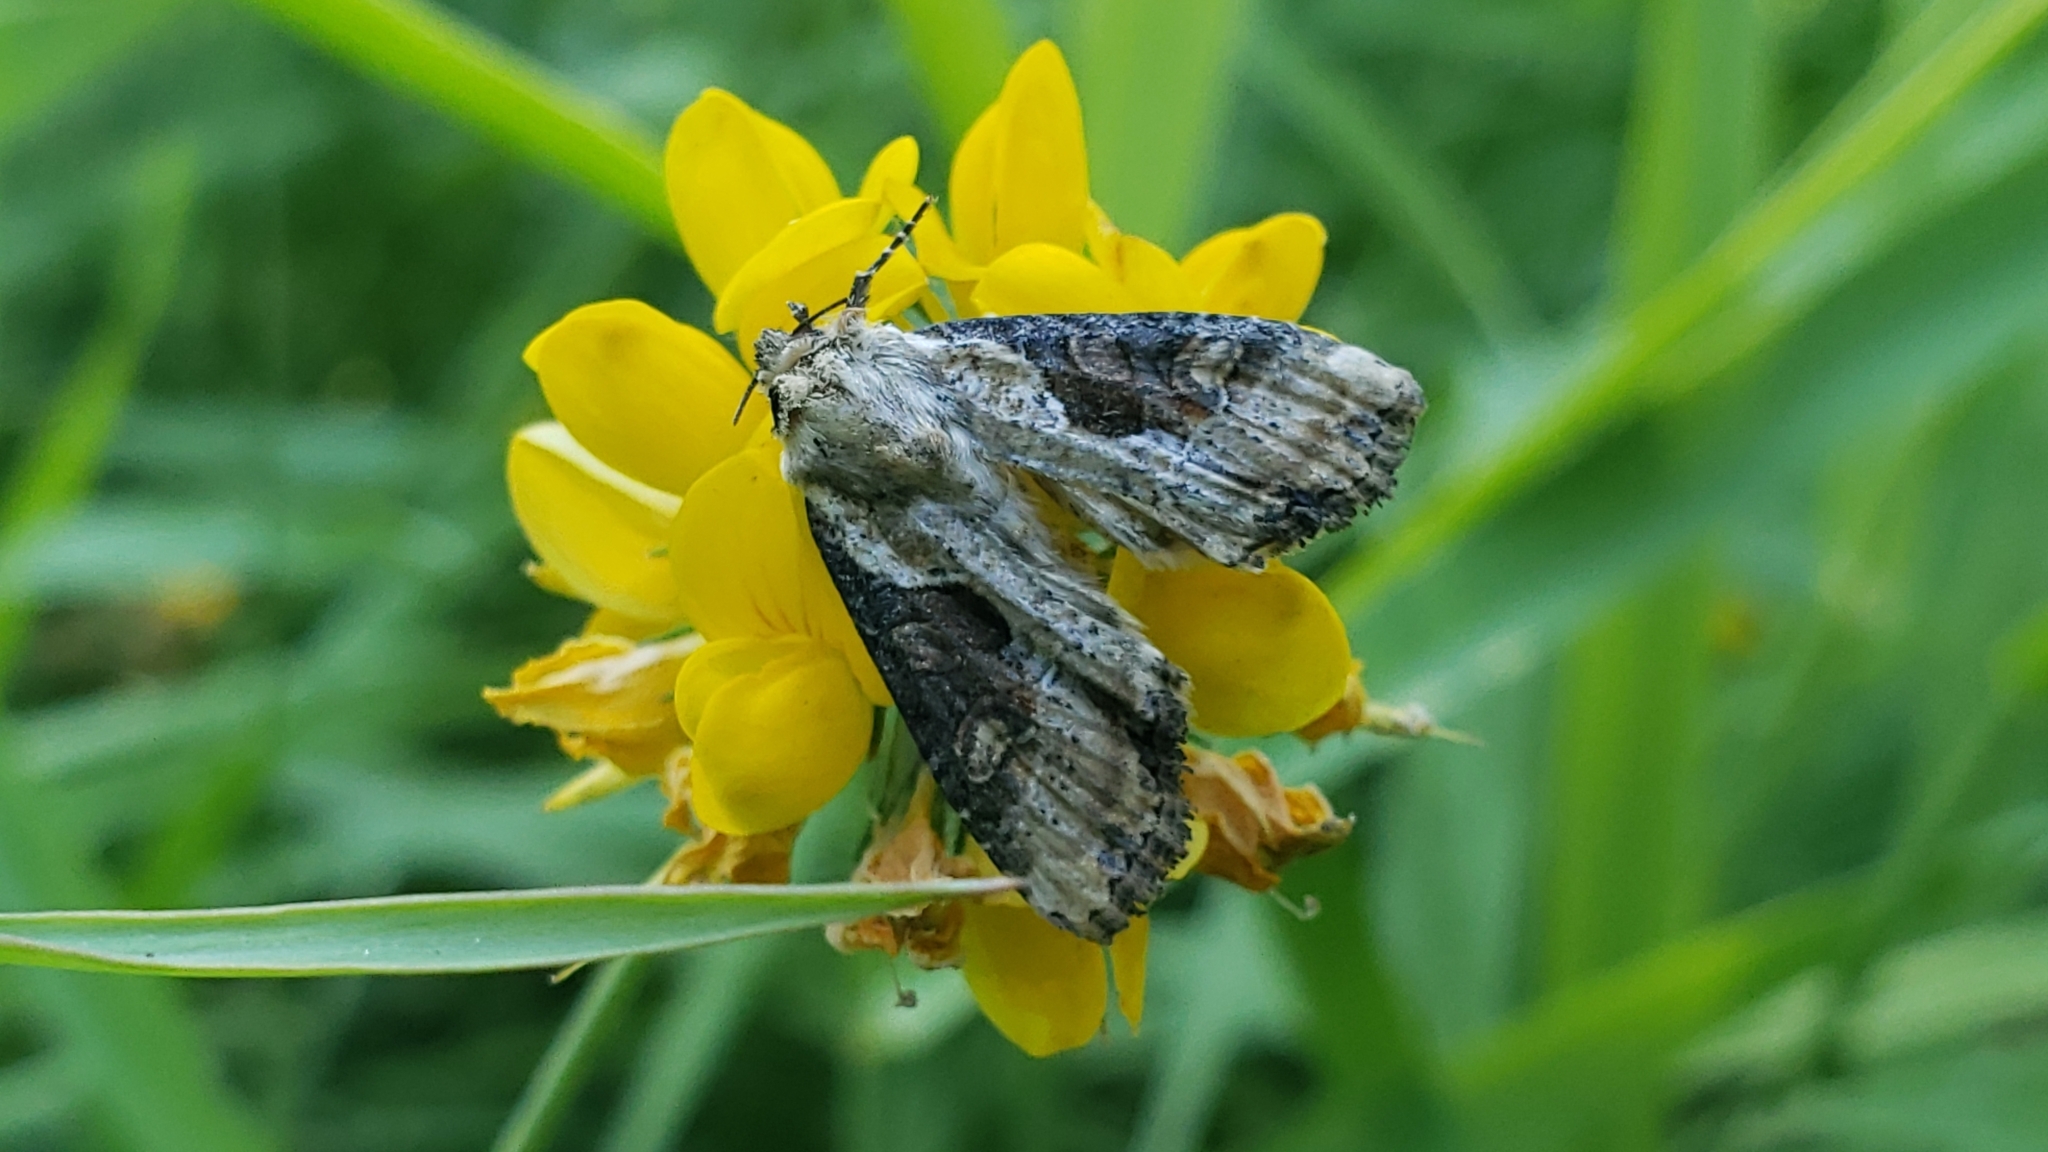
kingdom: Animalia
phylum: Arthropoda
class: Insecta
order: Lepidoptera
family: Noctuidae
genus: Lateroligia
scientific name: Lateroligia ophiogramma
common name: Double lobed
